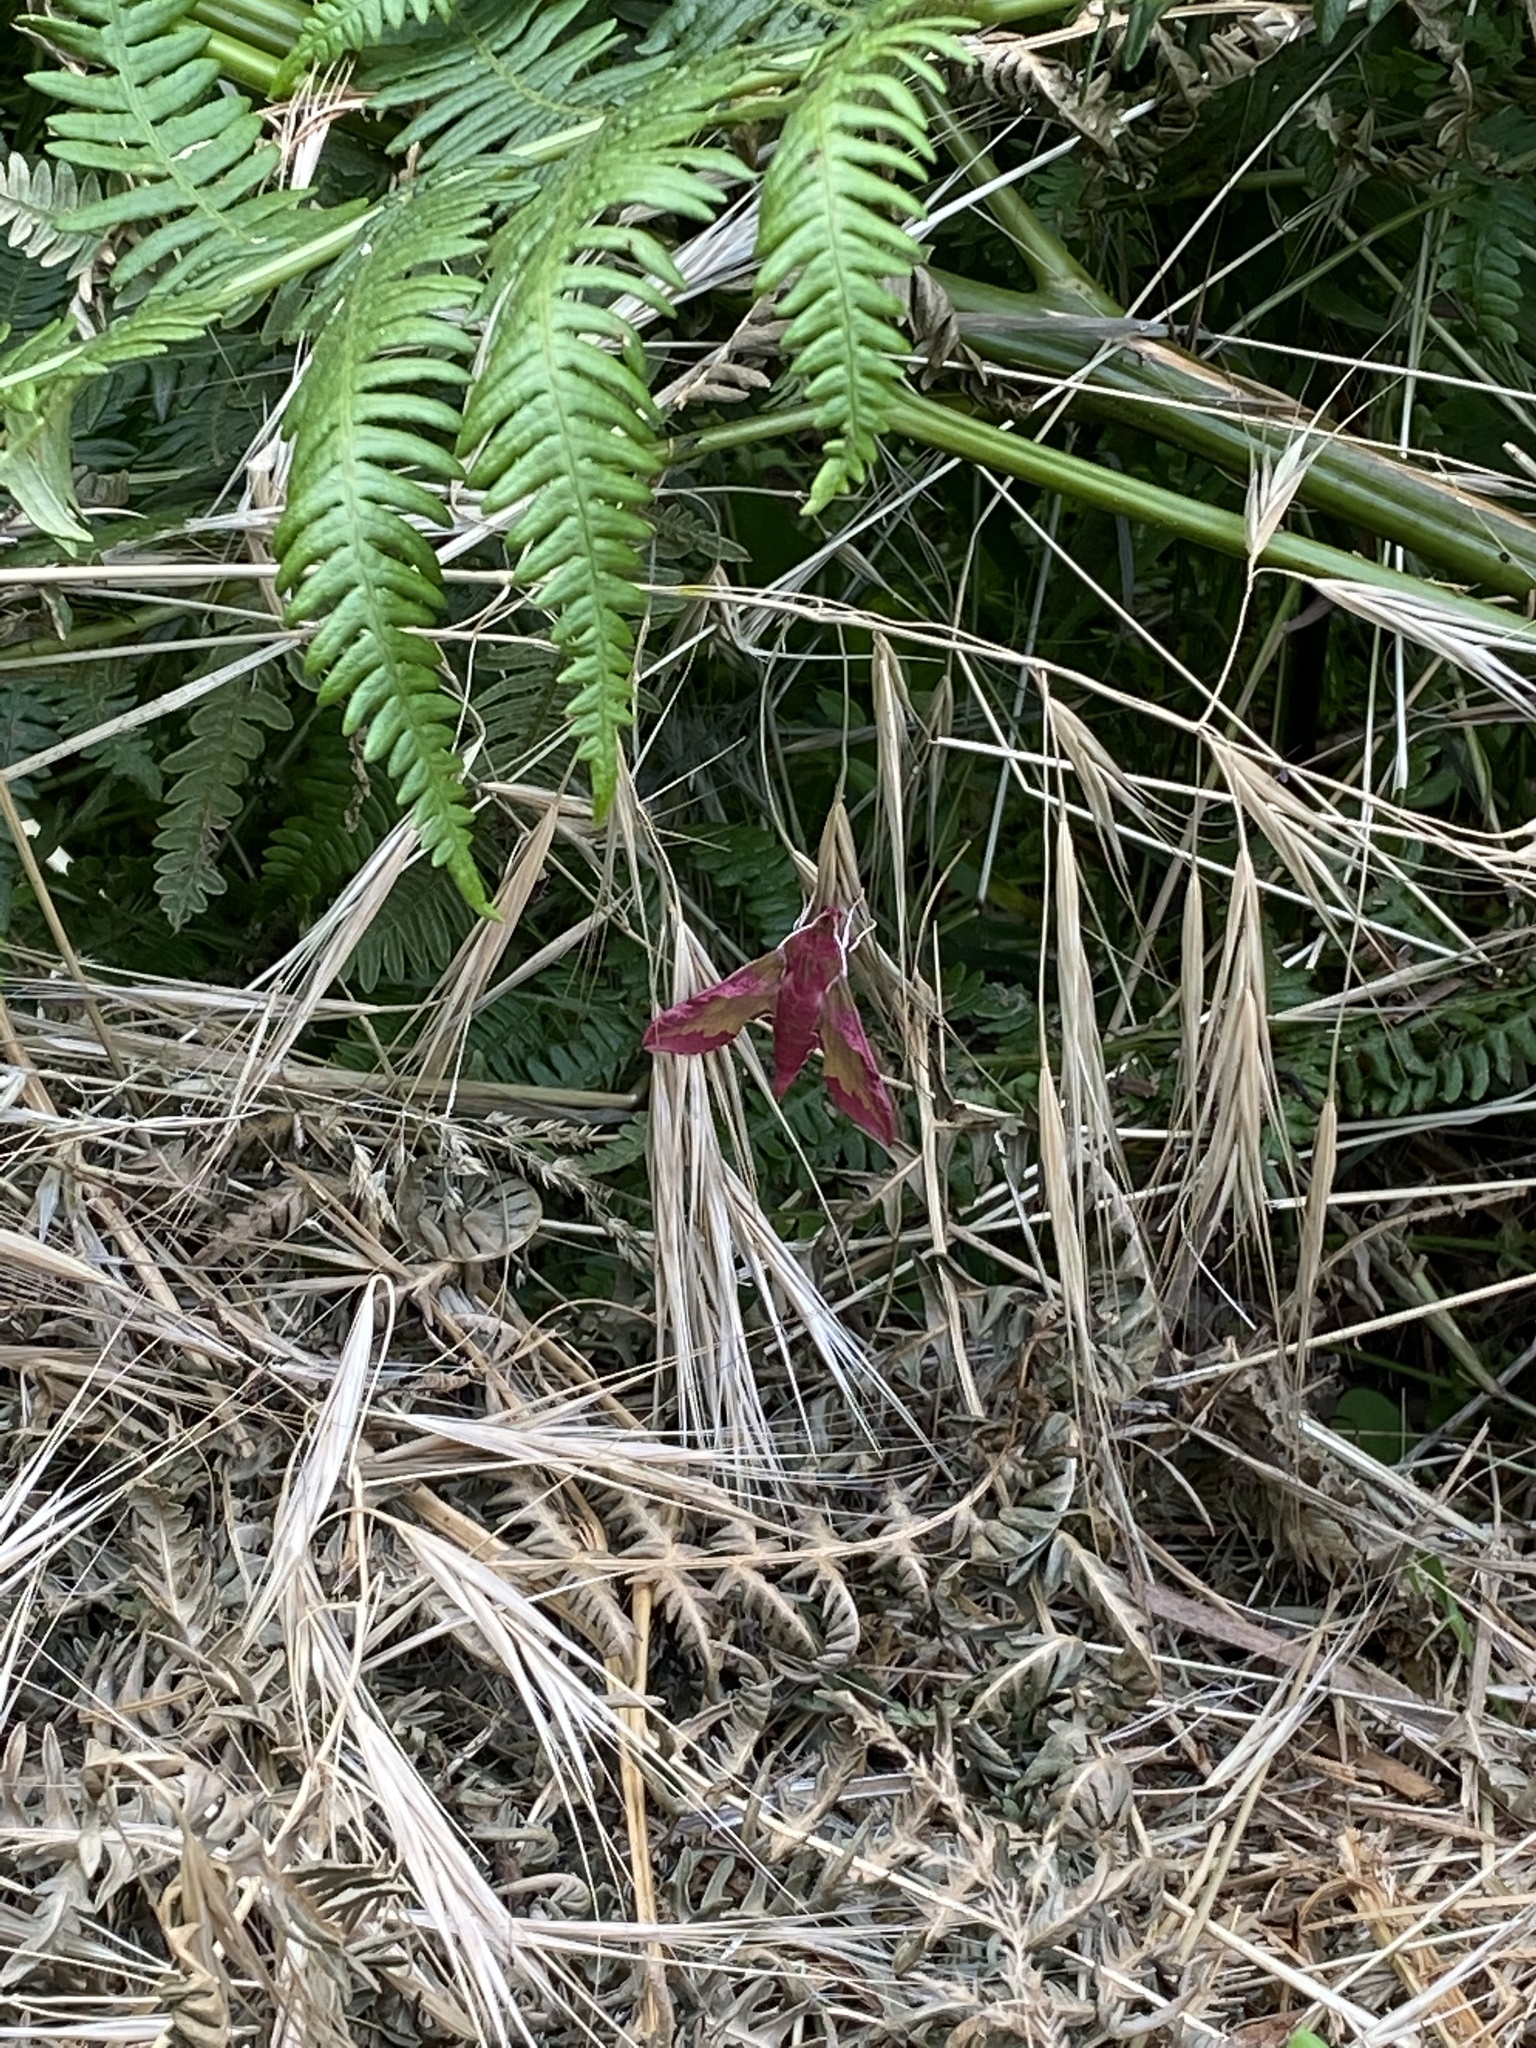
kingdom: Animalia
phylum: Arthropoda
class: Insecta
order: Lepidoptera
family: Sphingidae
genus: Deilephila
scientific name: Deilephila porcellus
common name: Small elephant hawk-moth
